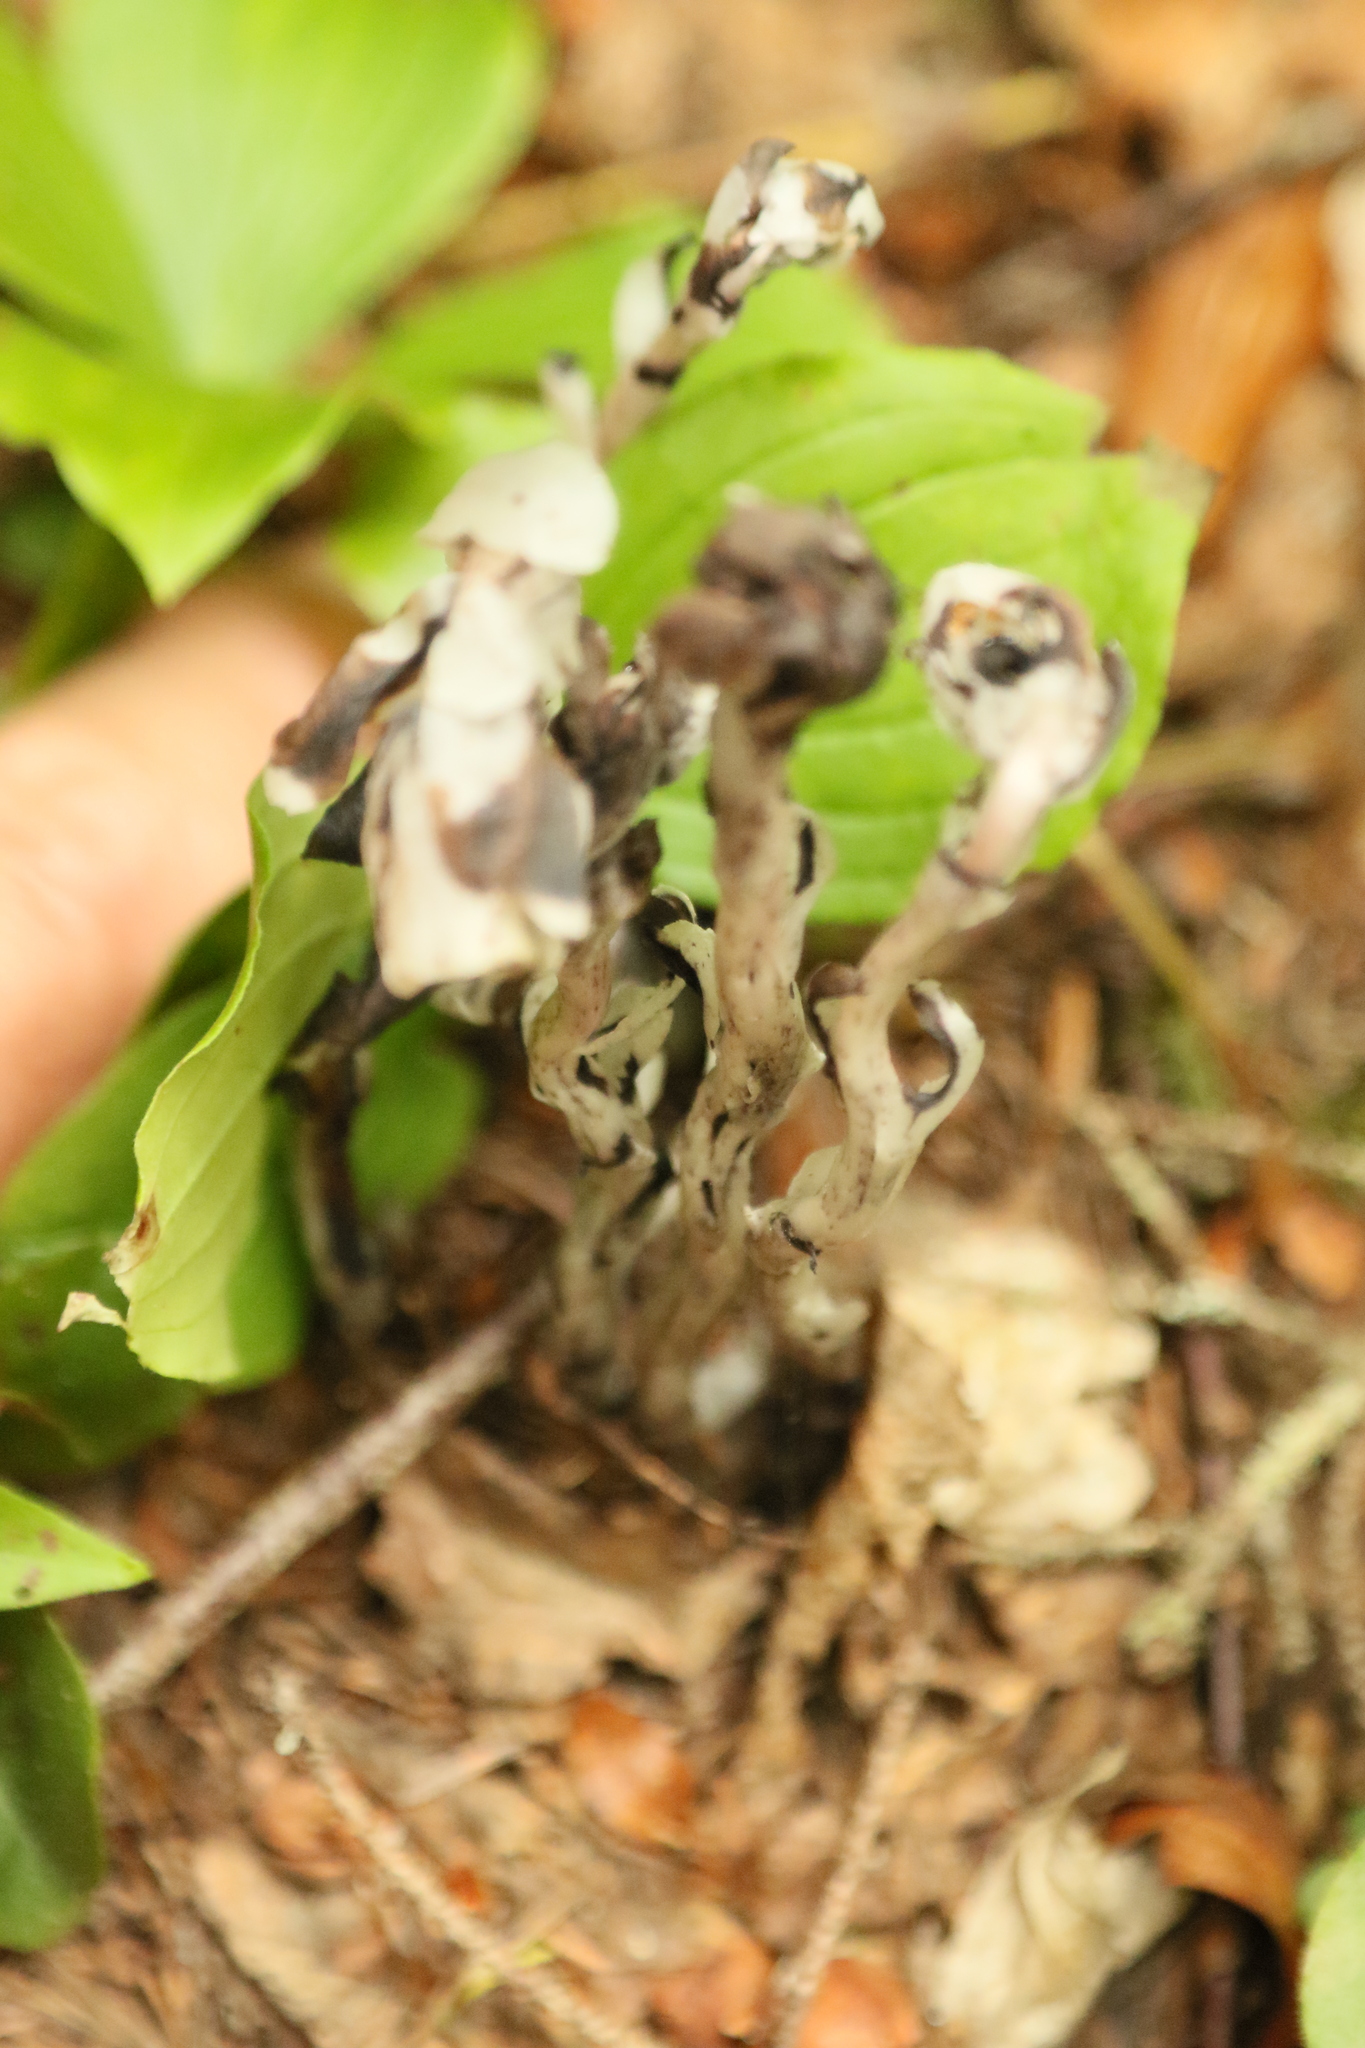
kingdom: Plantae
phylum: Tracheophyta
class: Magnoliopsida
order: Ericales
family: Ericaceae
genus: Monotropa
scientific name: Monotropa uniflora
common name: Convulsion root
